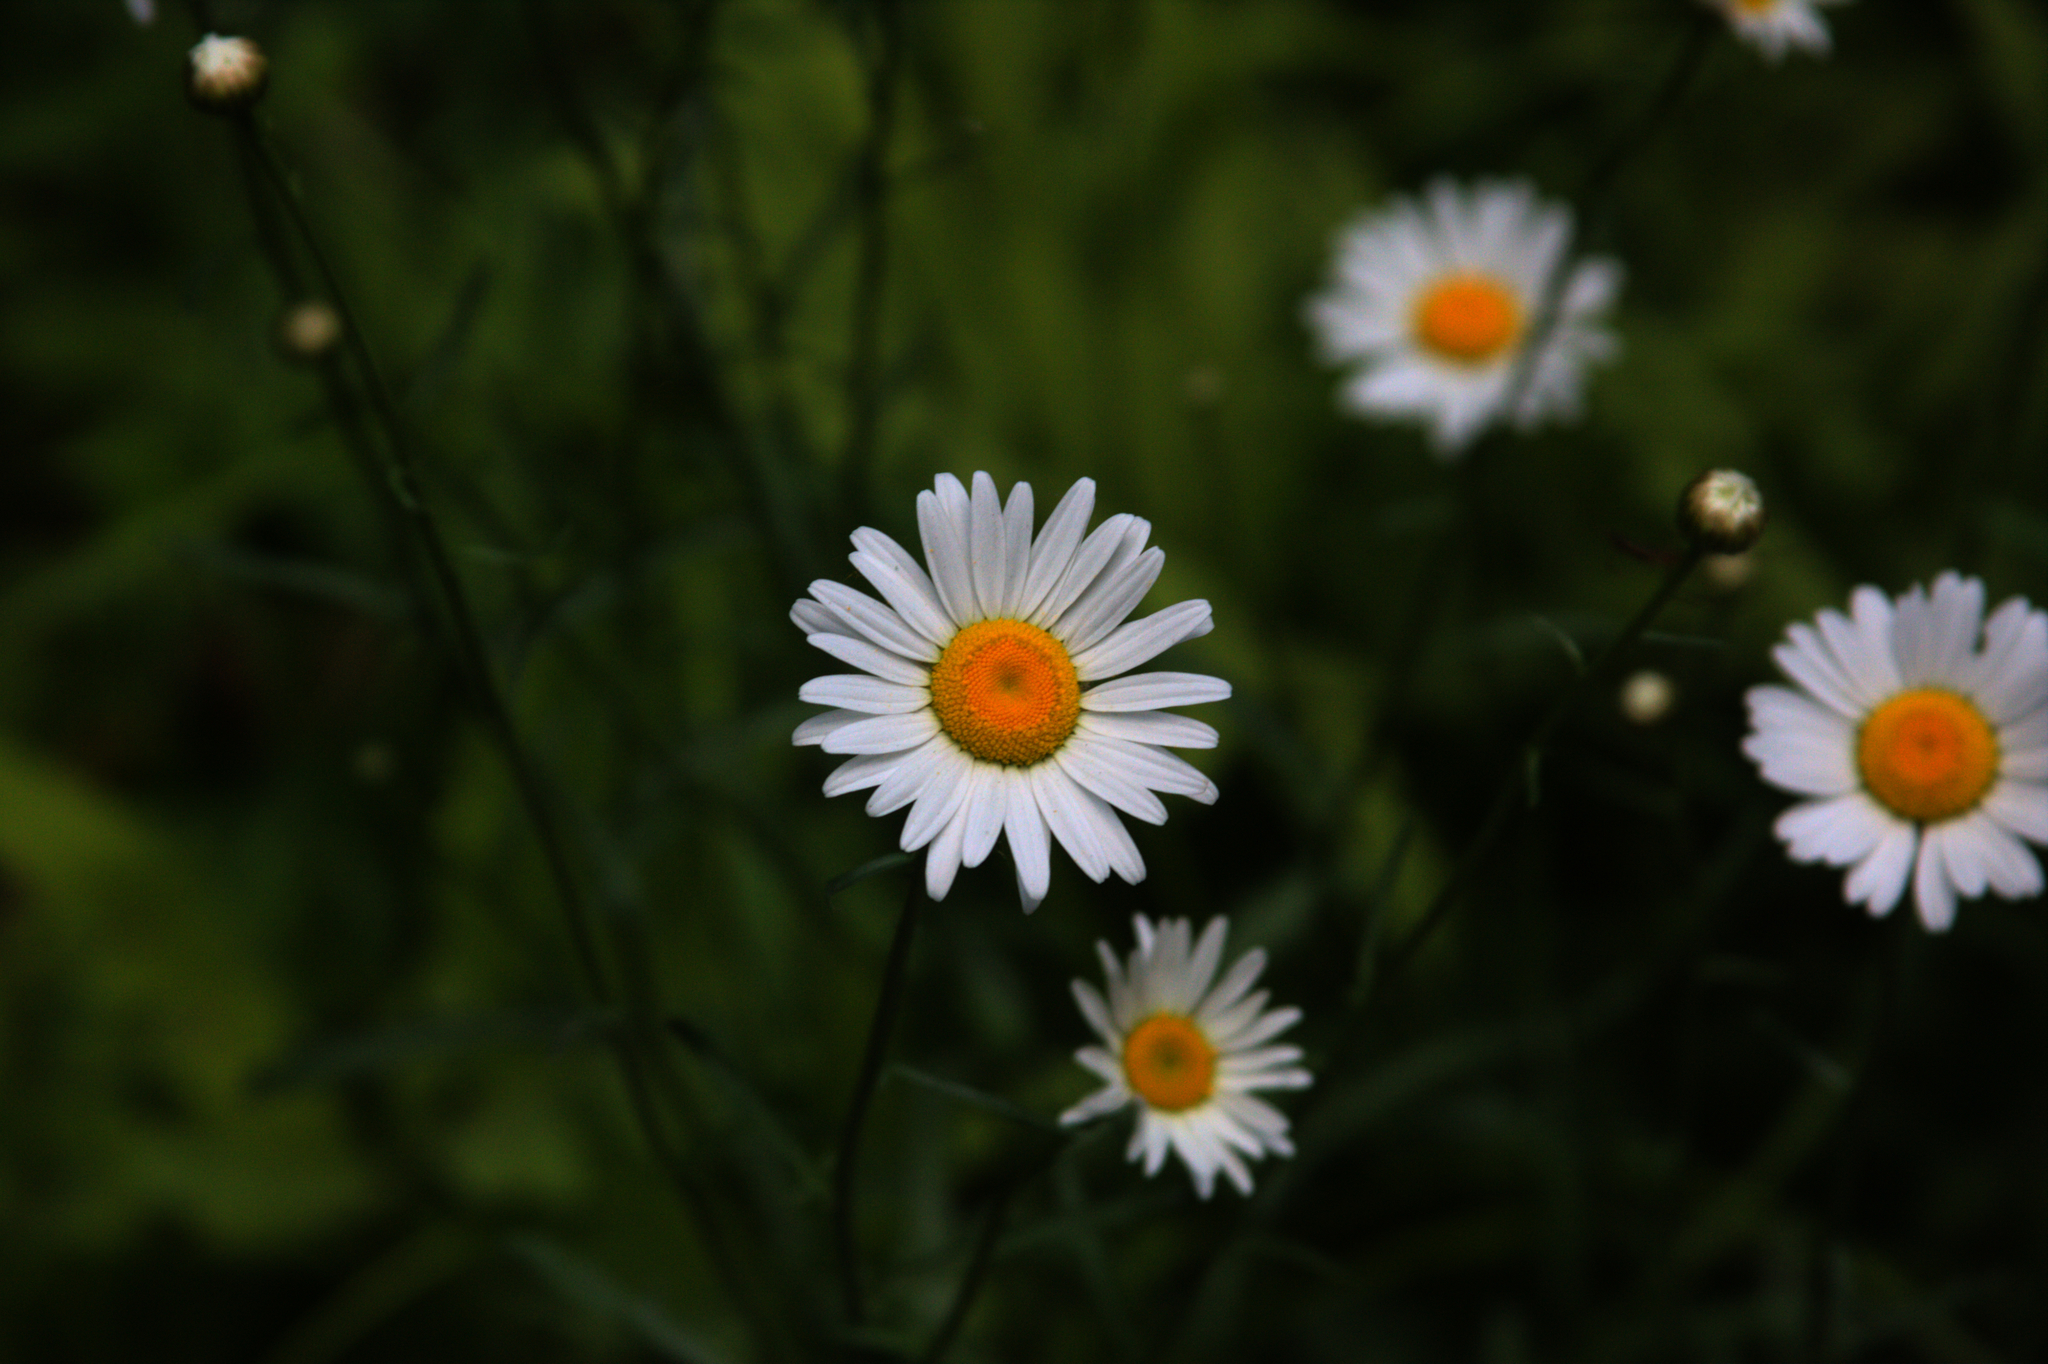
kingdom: Plantae
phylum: Tracheophyta
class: Magnoliopsida
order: Asterales
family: Asteraceae
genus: Leucanthemum
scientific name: Leucanthemum vulgare
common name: Oxeye daisy
